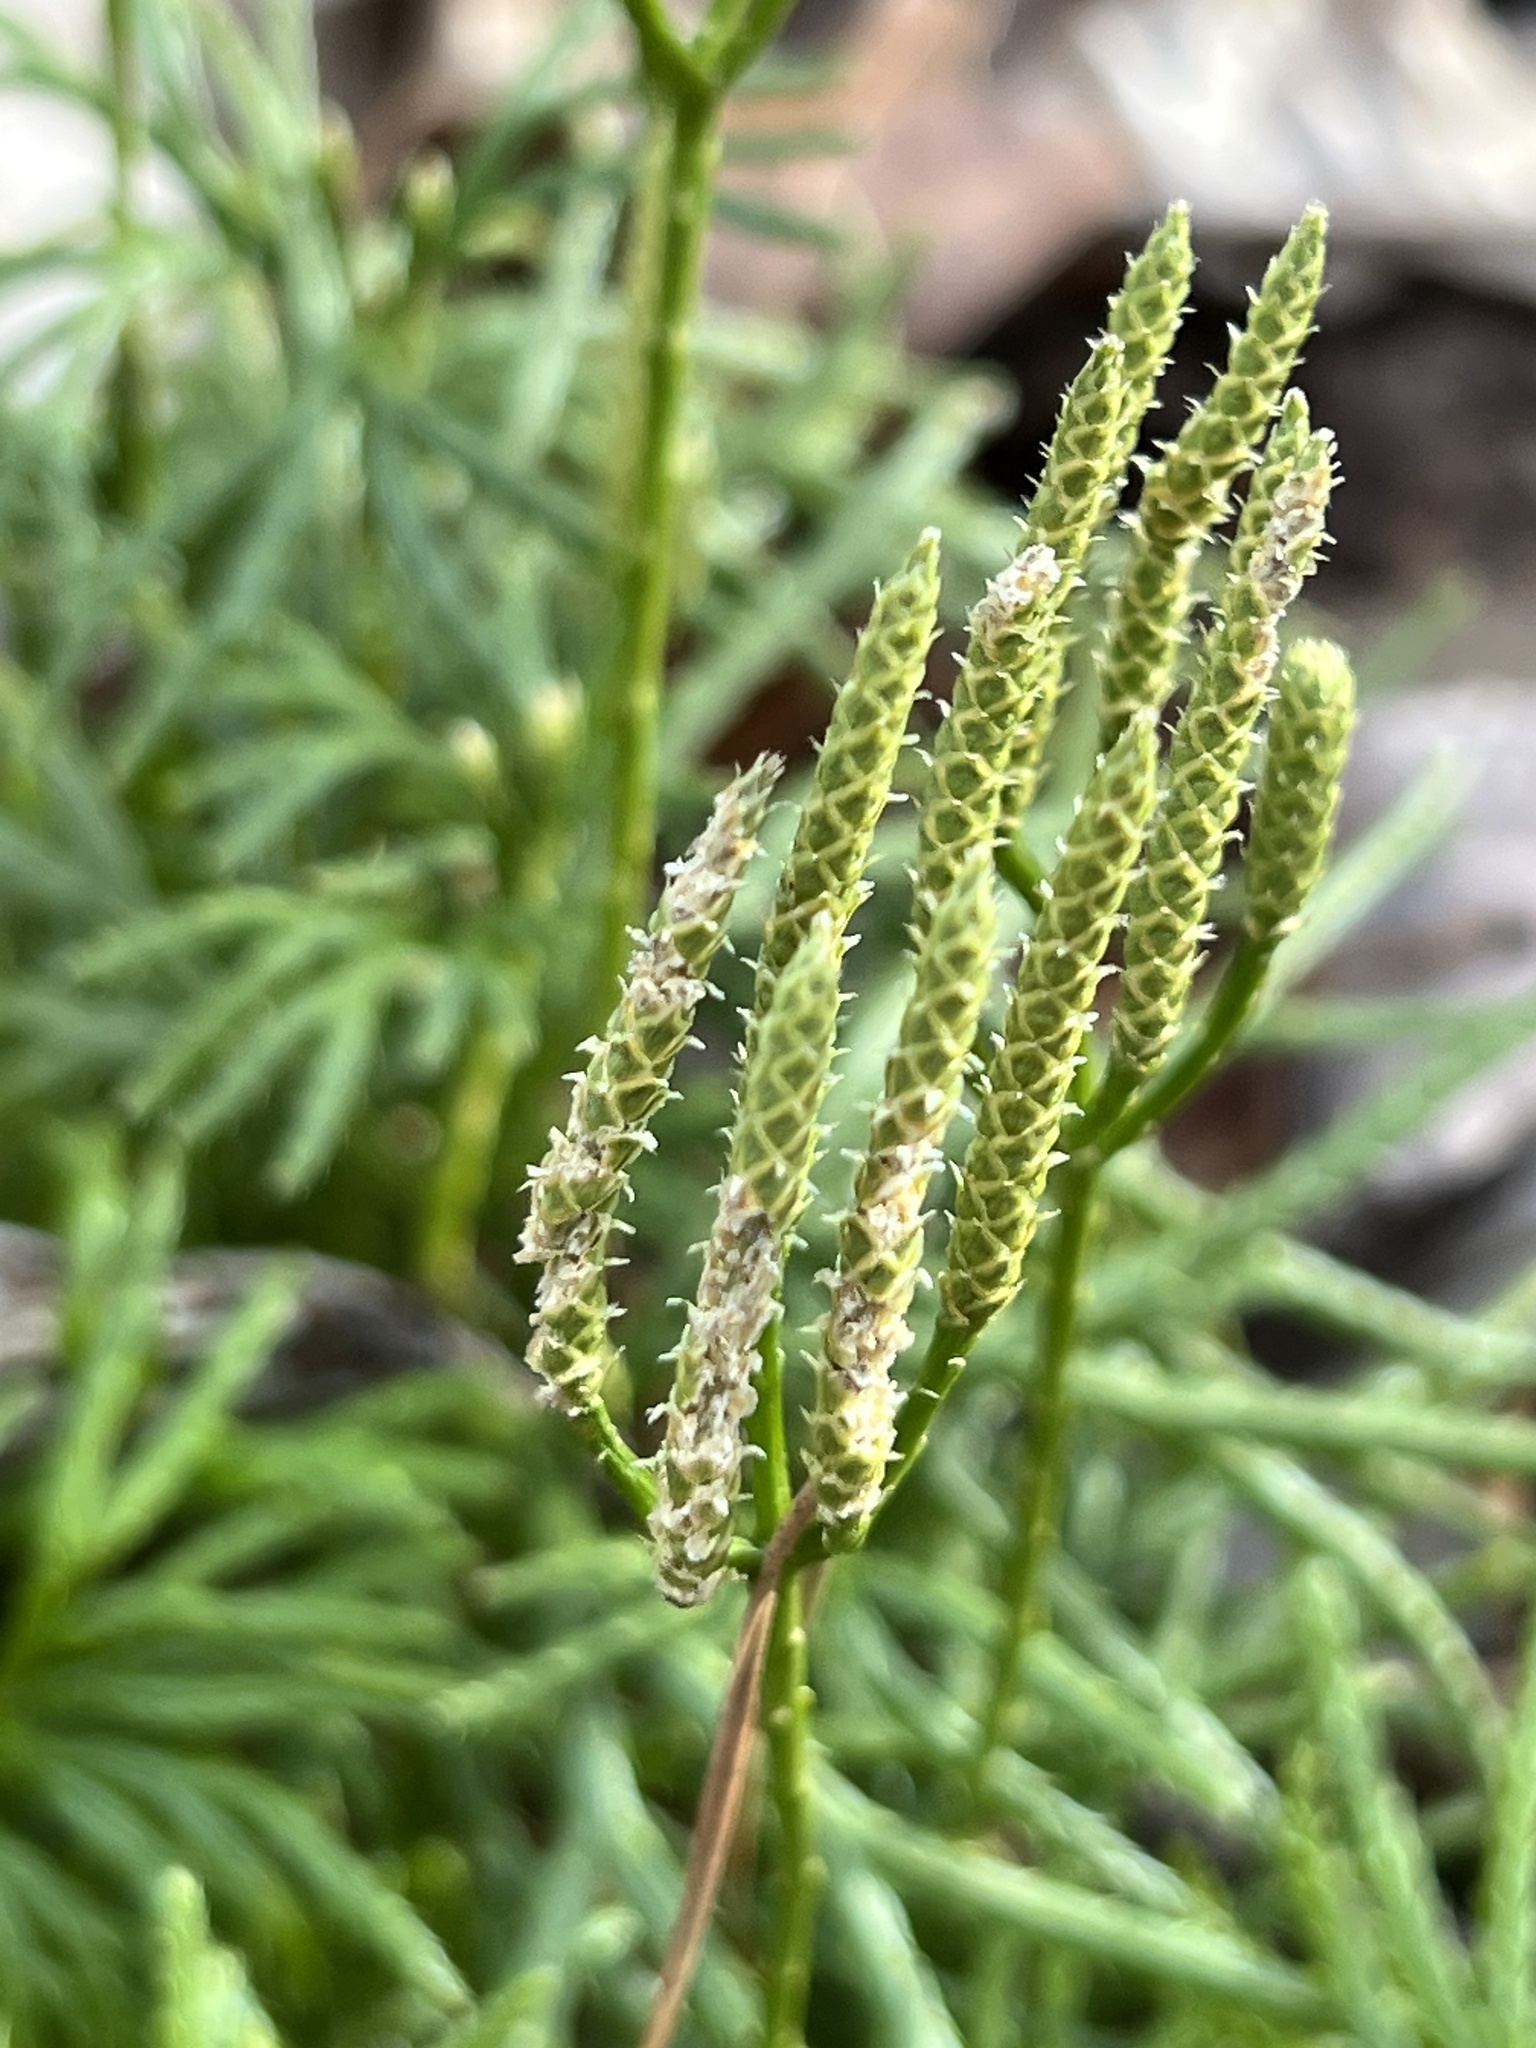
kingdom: Plantae
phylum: Tracheophyta
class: Lycopodiopsida
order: Lycopodiales
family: Lycopodiaceae
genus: Diphasiastrum
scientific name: Diphasiastrum digitatum
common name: Southern running-pine
